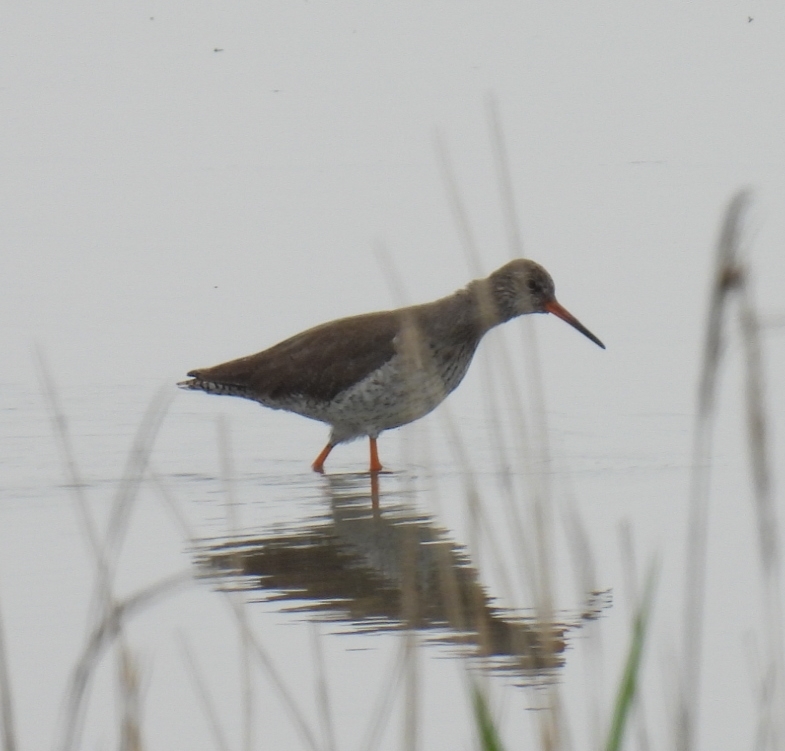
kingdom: Animalia
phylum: Chordata
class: Aves
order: Charadriiformes
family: Scolopacidae
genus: Tringa
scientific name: Tringa totanus
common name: Common redshank
